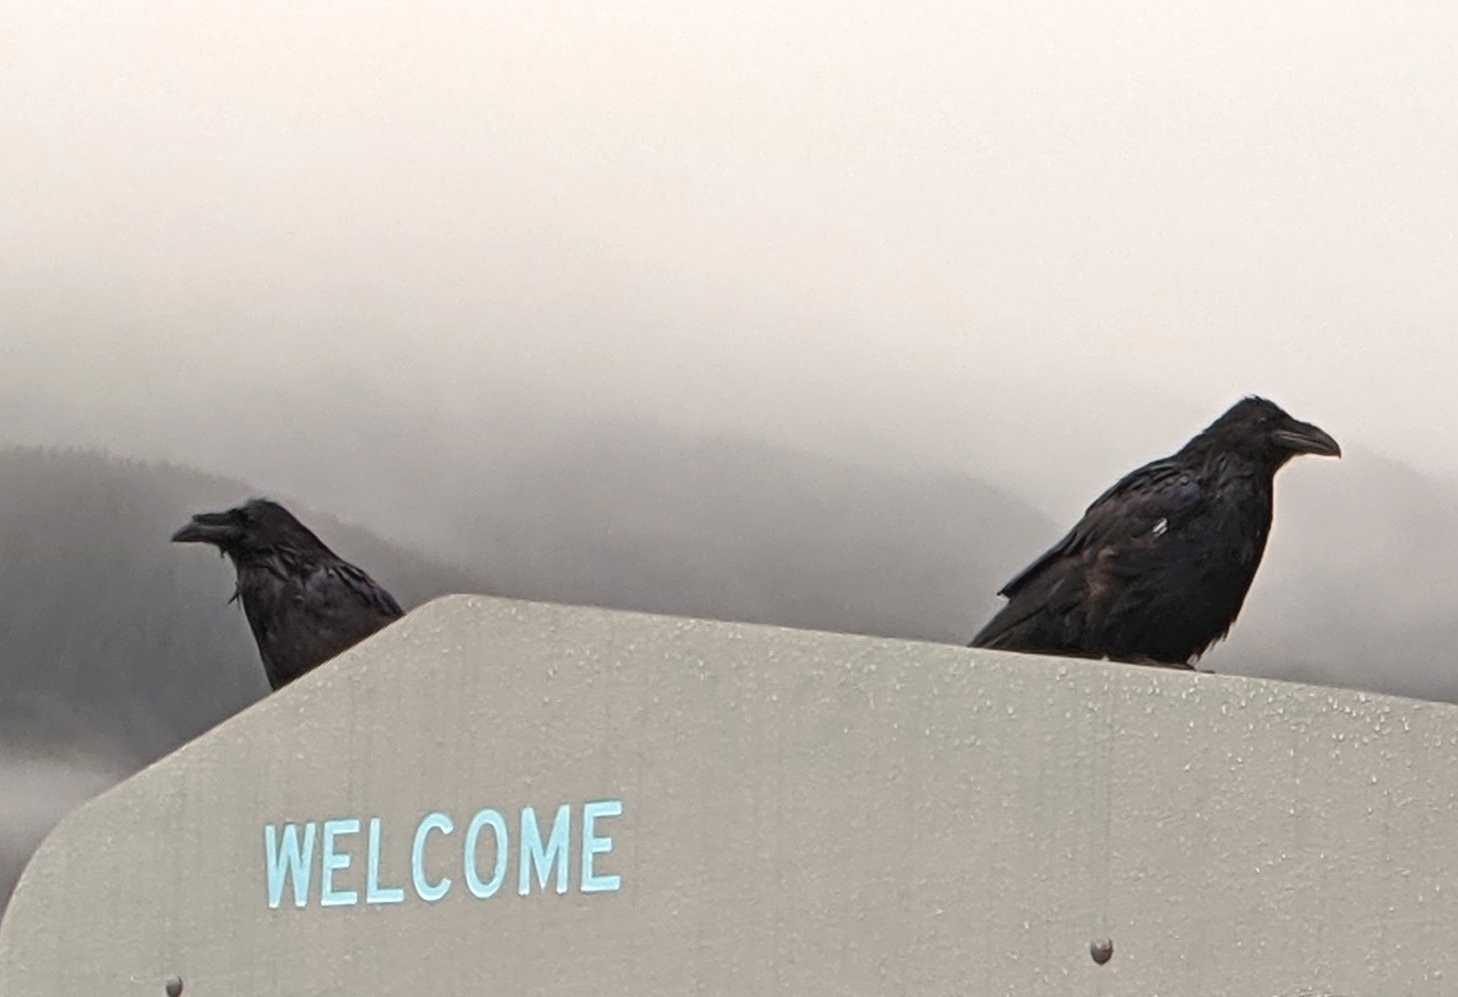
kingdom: Animalia
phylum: Chordata
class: Aves
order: Passeriformes
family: Corvidae
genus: Corvus
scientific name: Corvus corax
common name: Common raven
